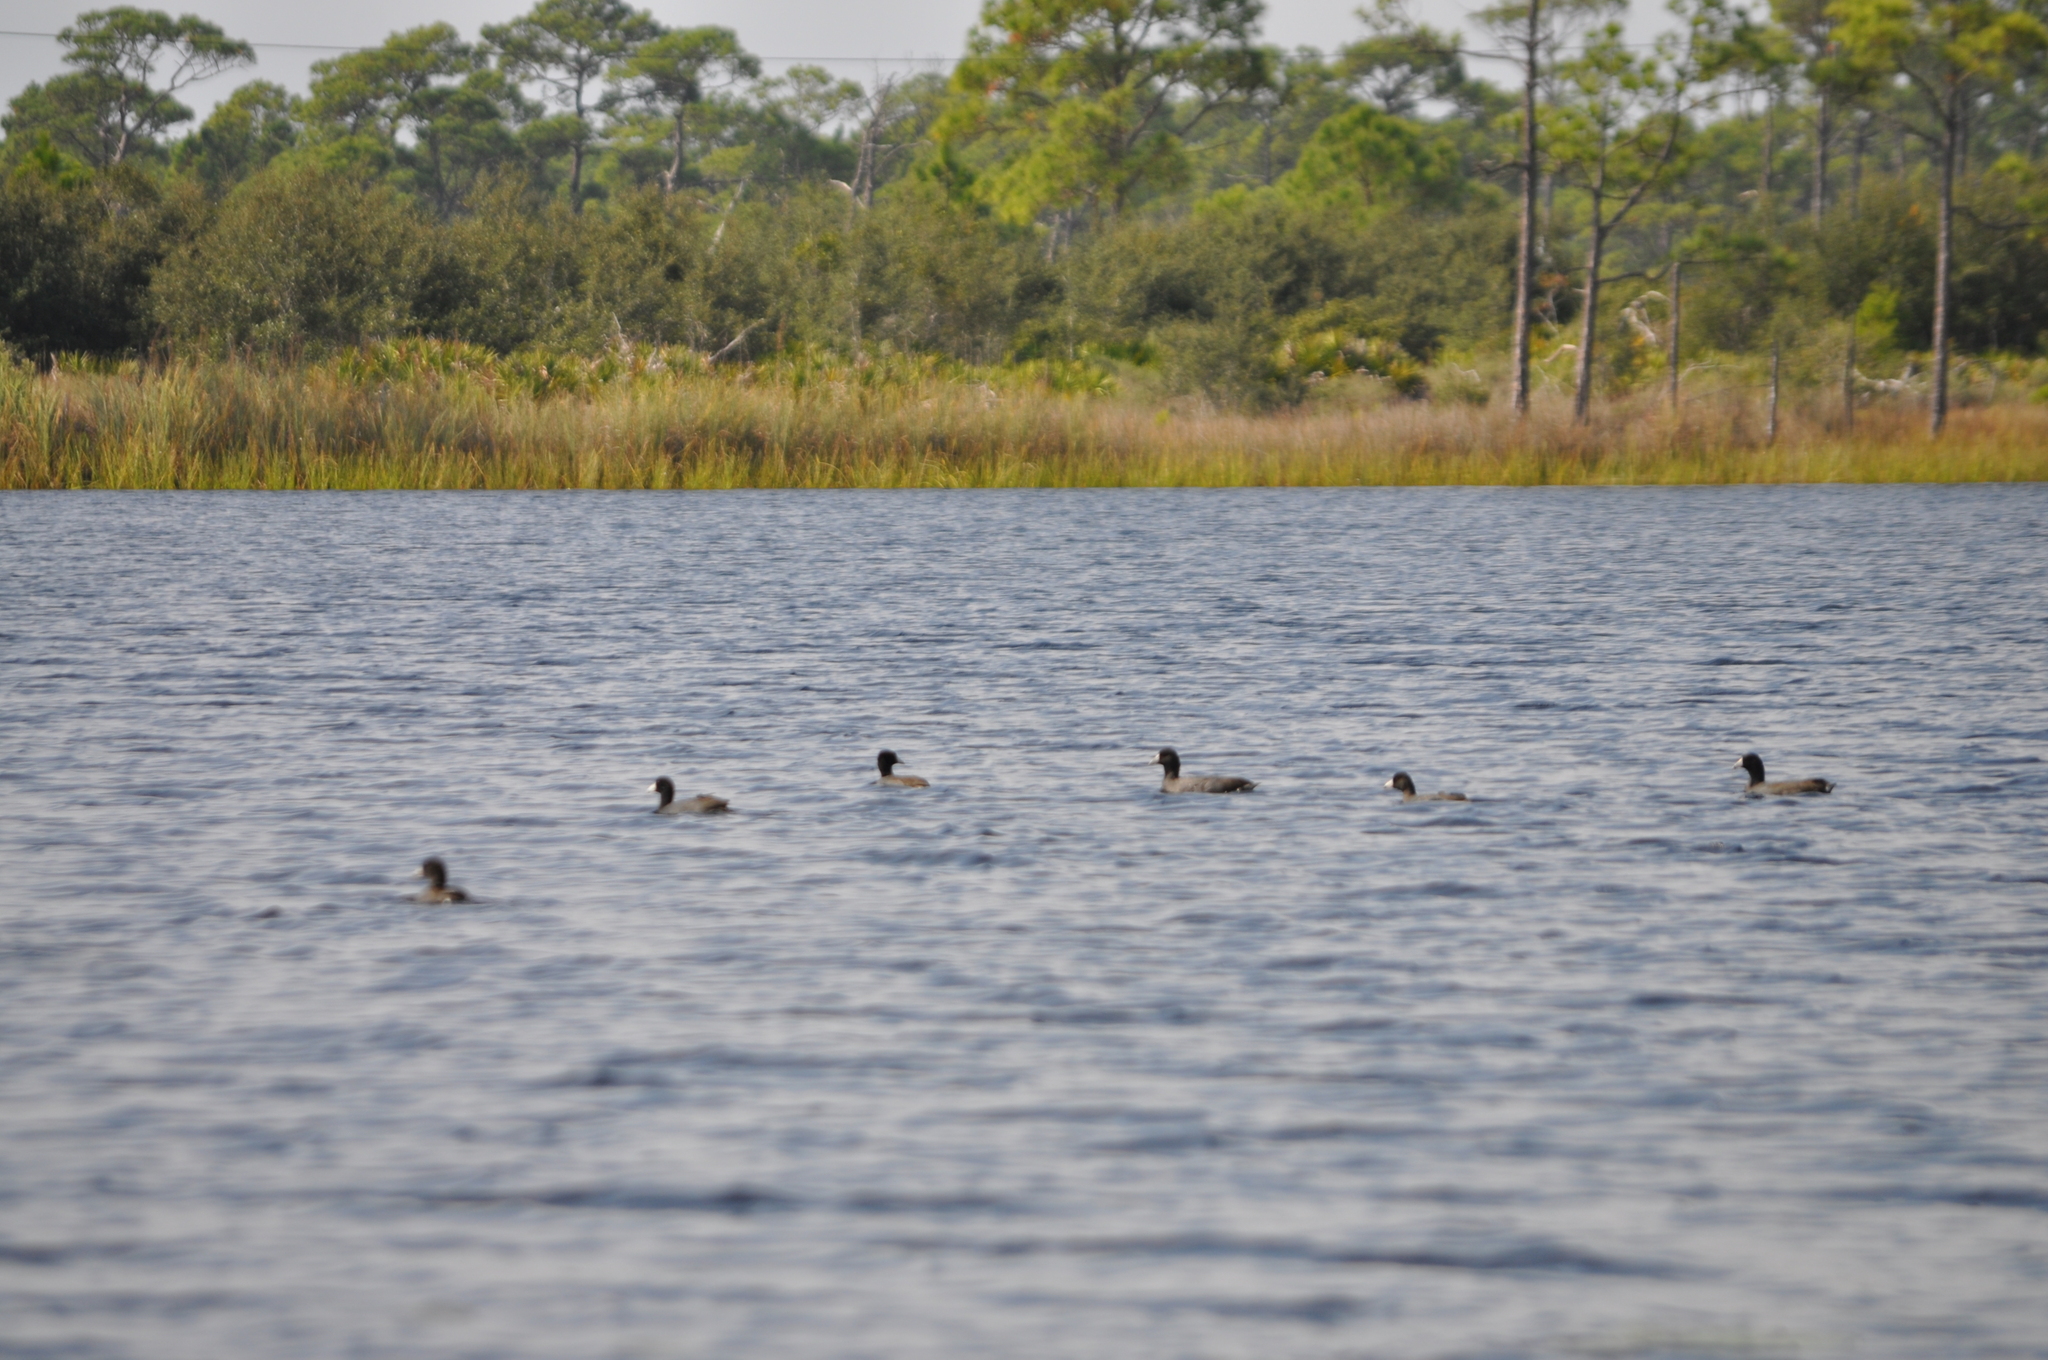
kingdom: Animalia
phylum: Chordata
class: Aves
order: Gruiformes
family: Rallidae
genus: Fulica
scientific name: Fulica americana
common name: American coot
